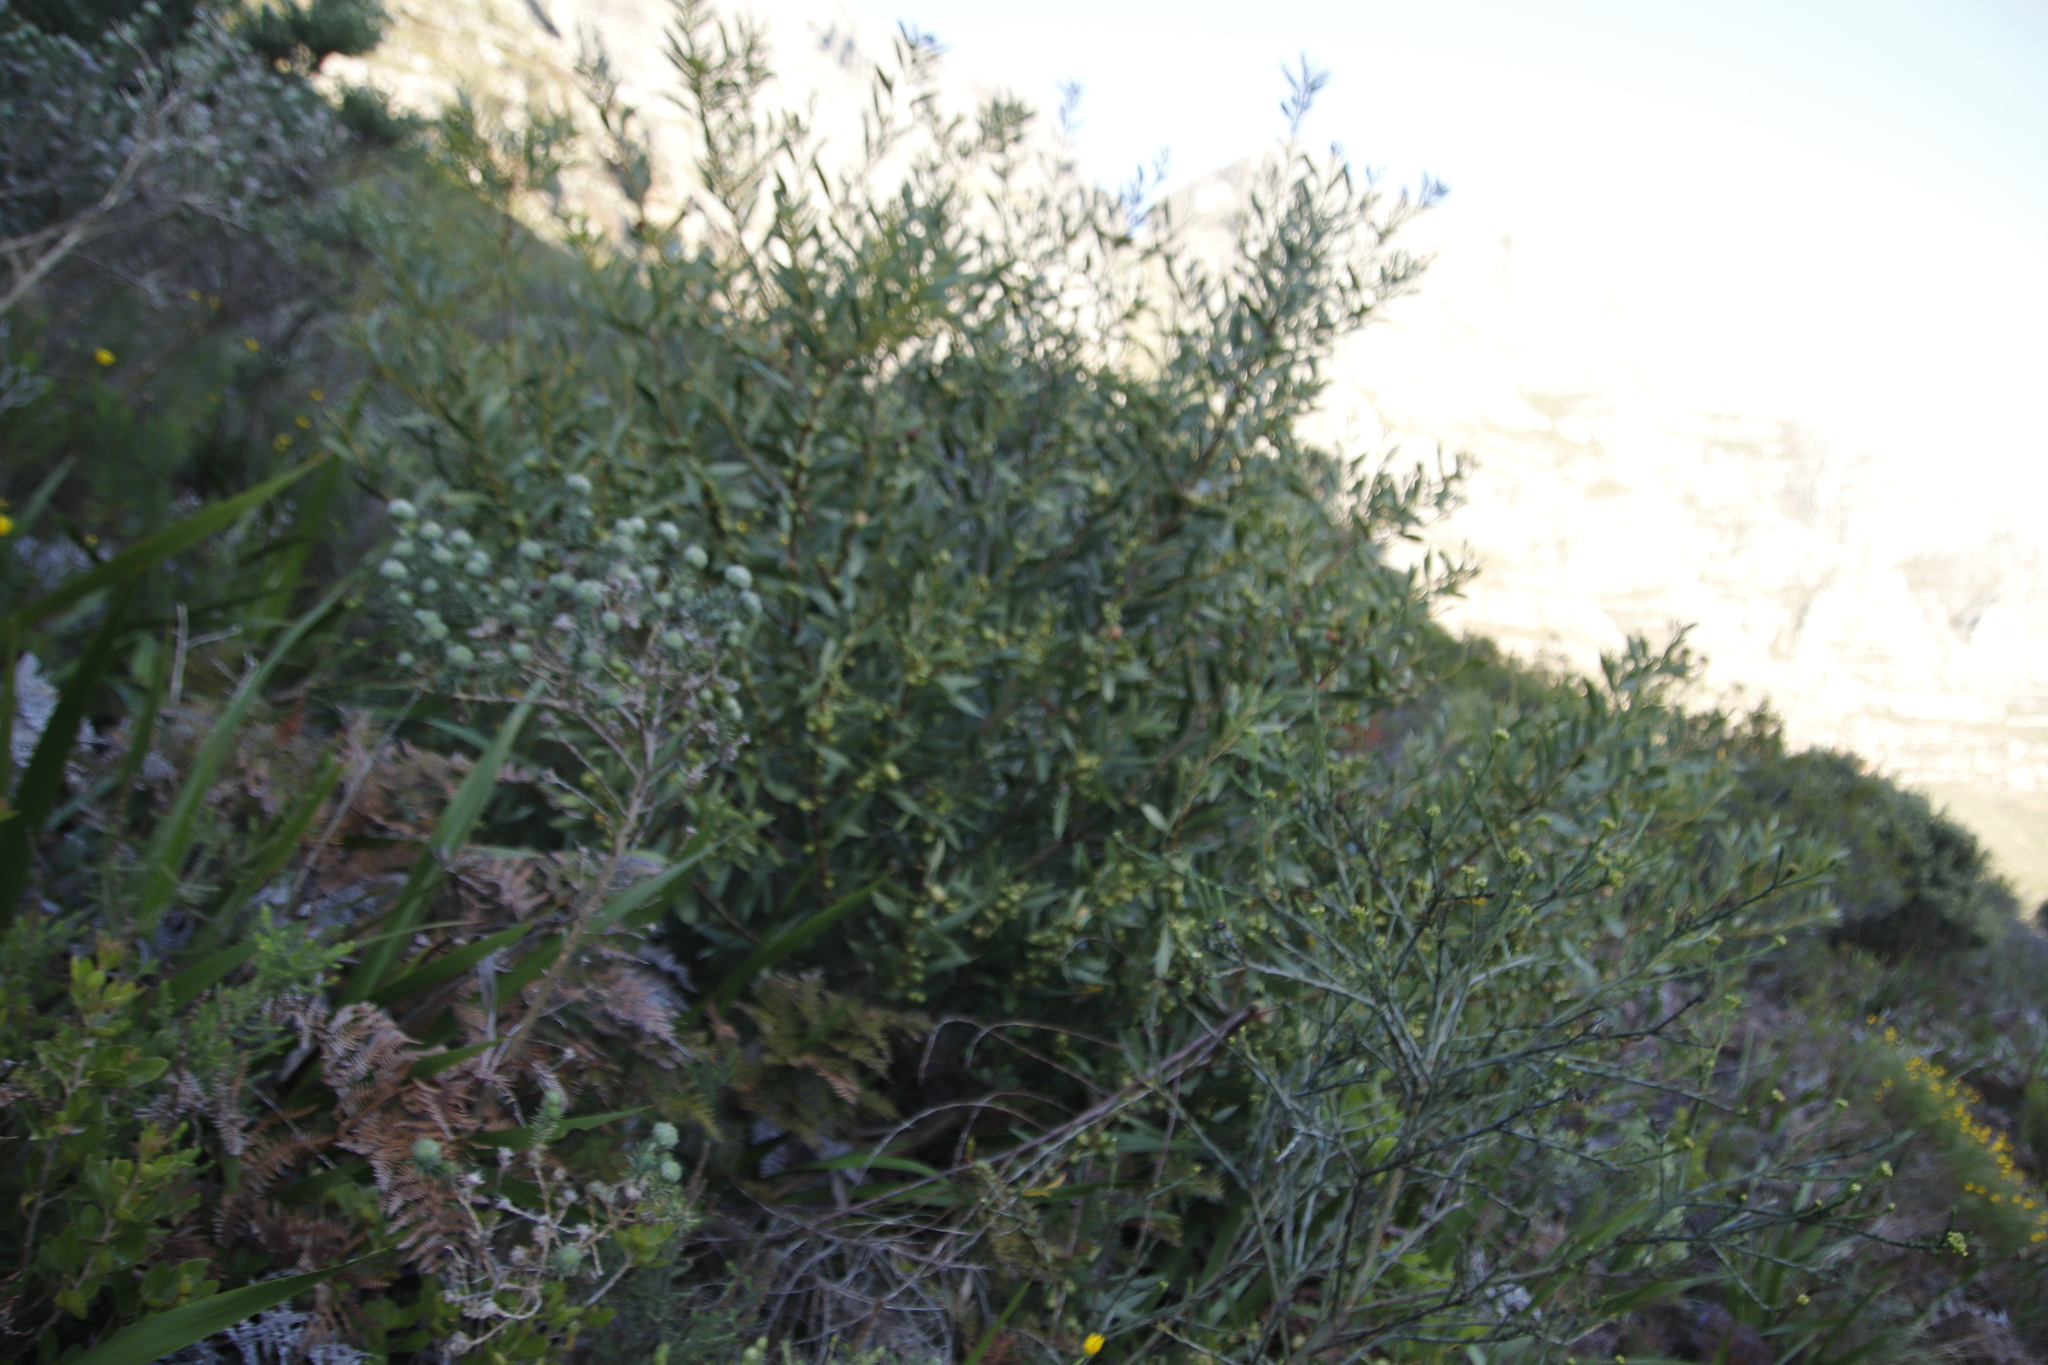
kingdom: Plantae
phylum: Tracheophyta
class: Magnoliopsida
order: Fabales
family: Fabaceae
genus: Acacia
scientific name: Acacia longifolia
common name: Sydney golden wattle
